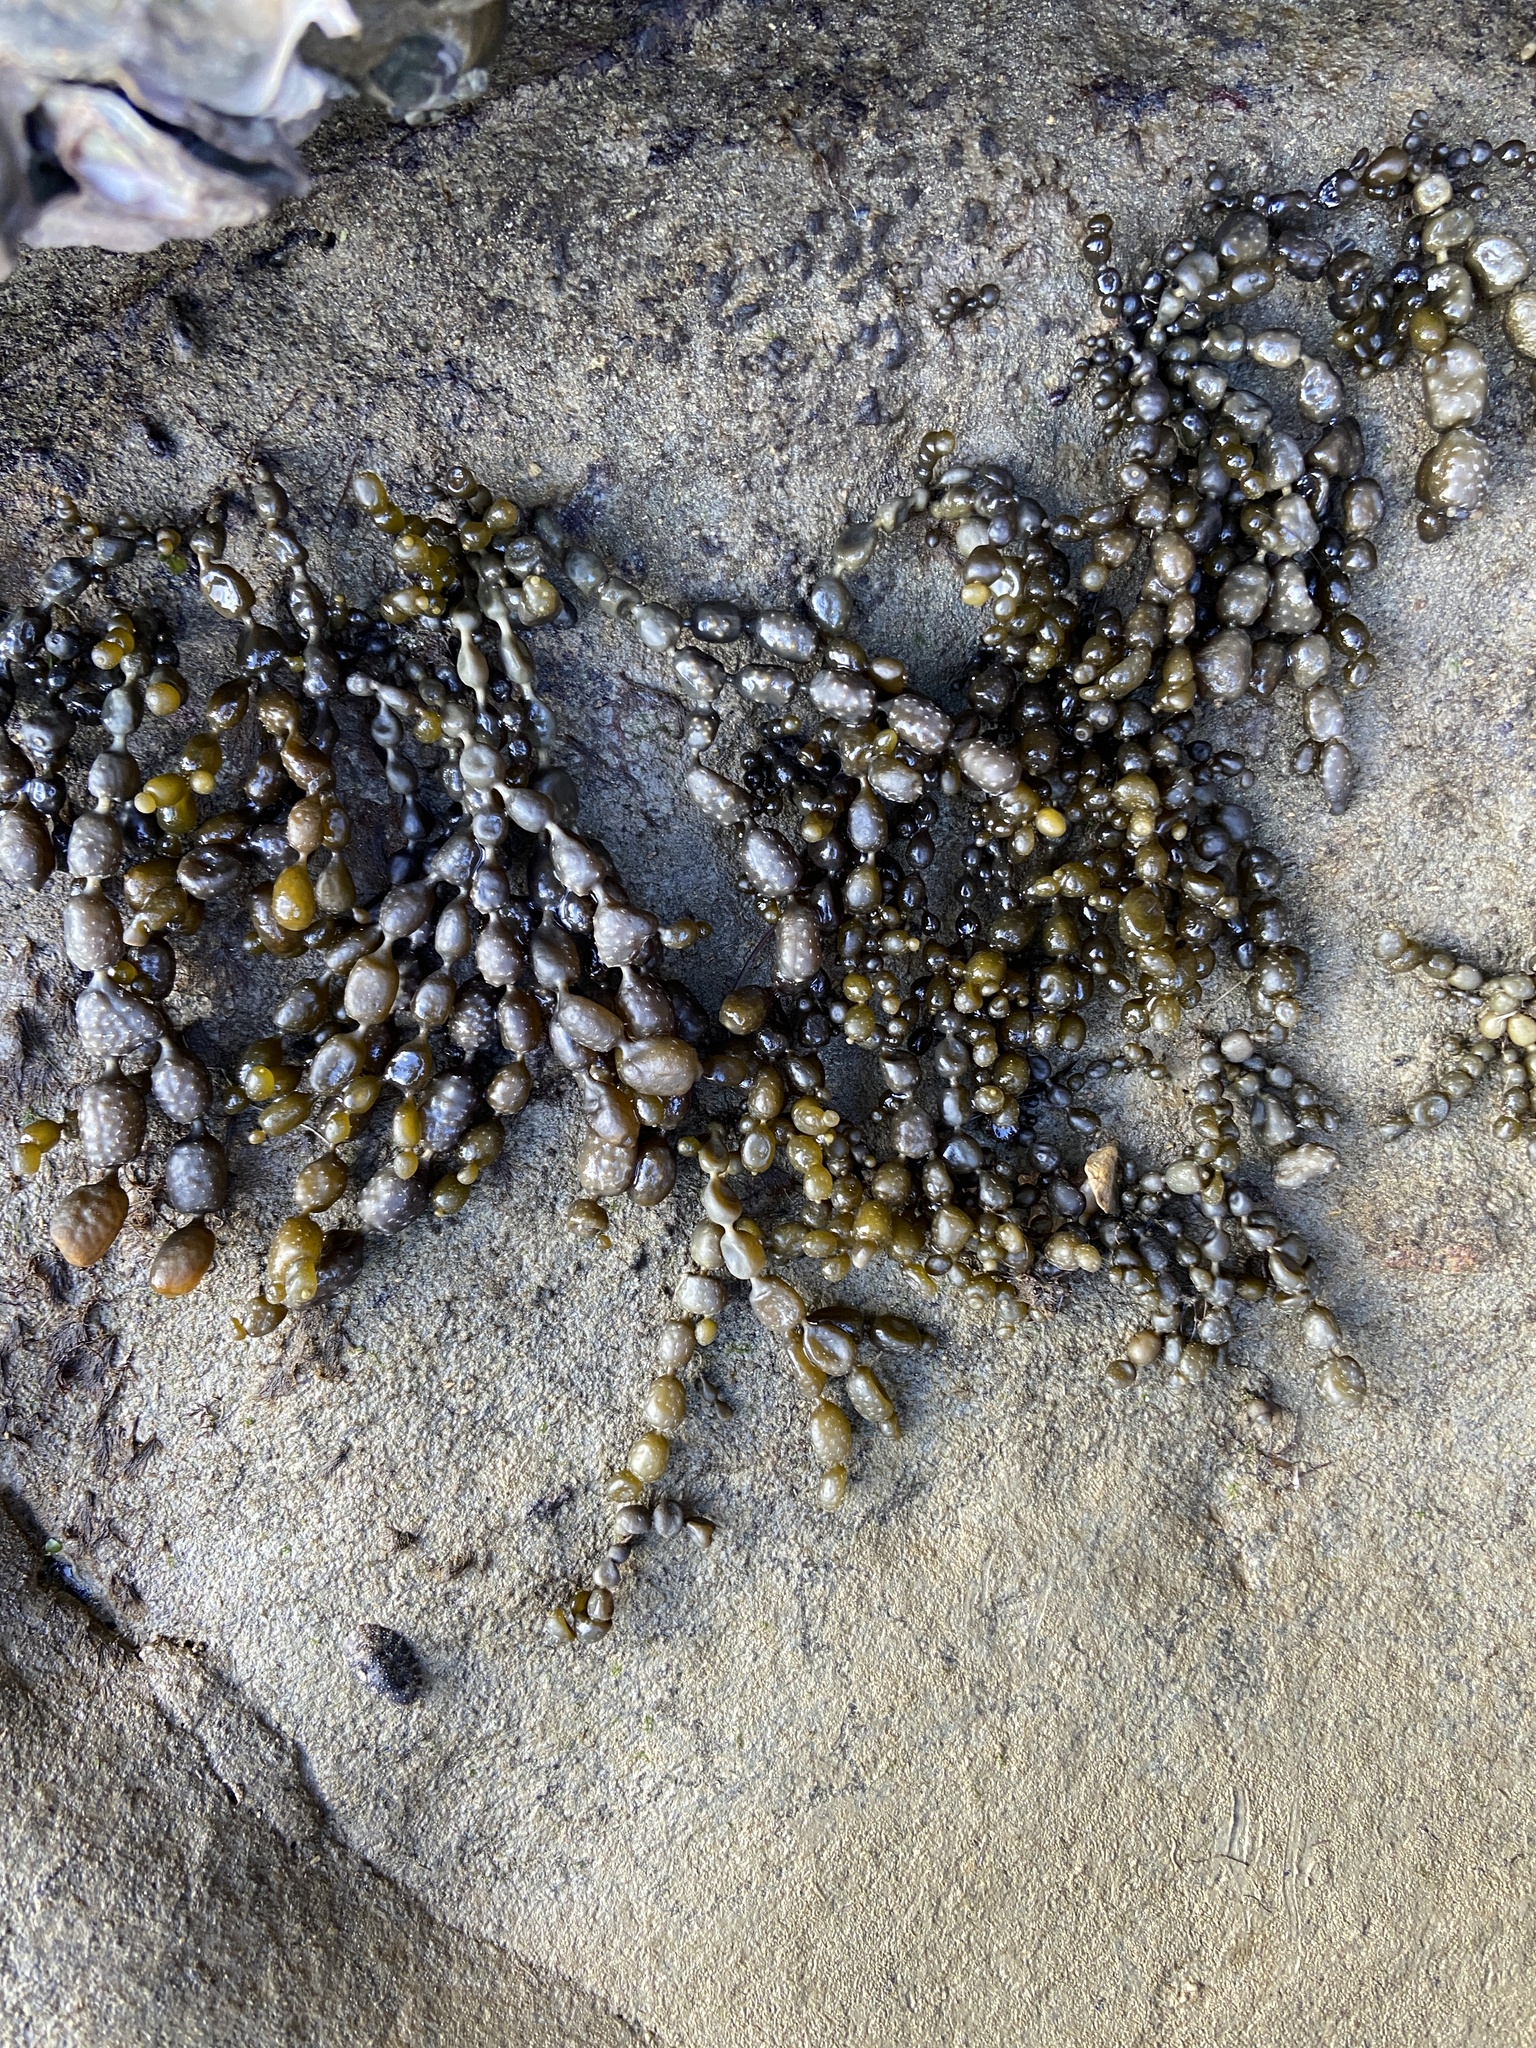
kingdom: Chromista
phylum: Ochrophyta
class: Phaeophyceae
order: Fucales
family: Hormosiraceae
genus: Hormosira
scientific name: Hormosira banksii
